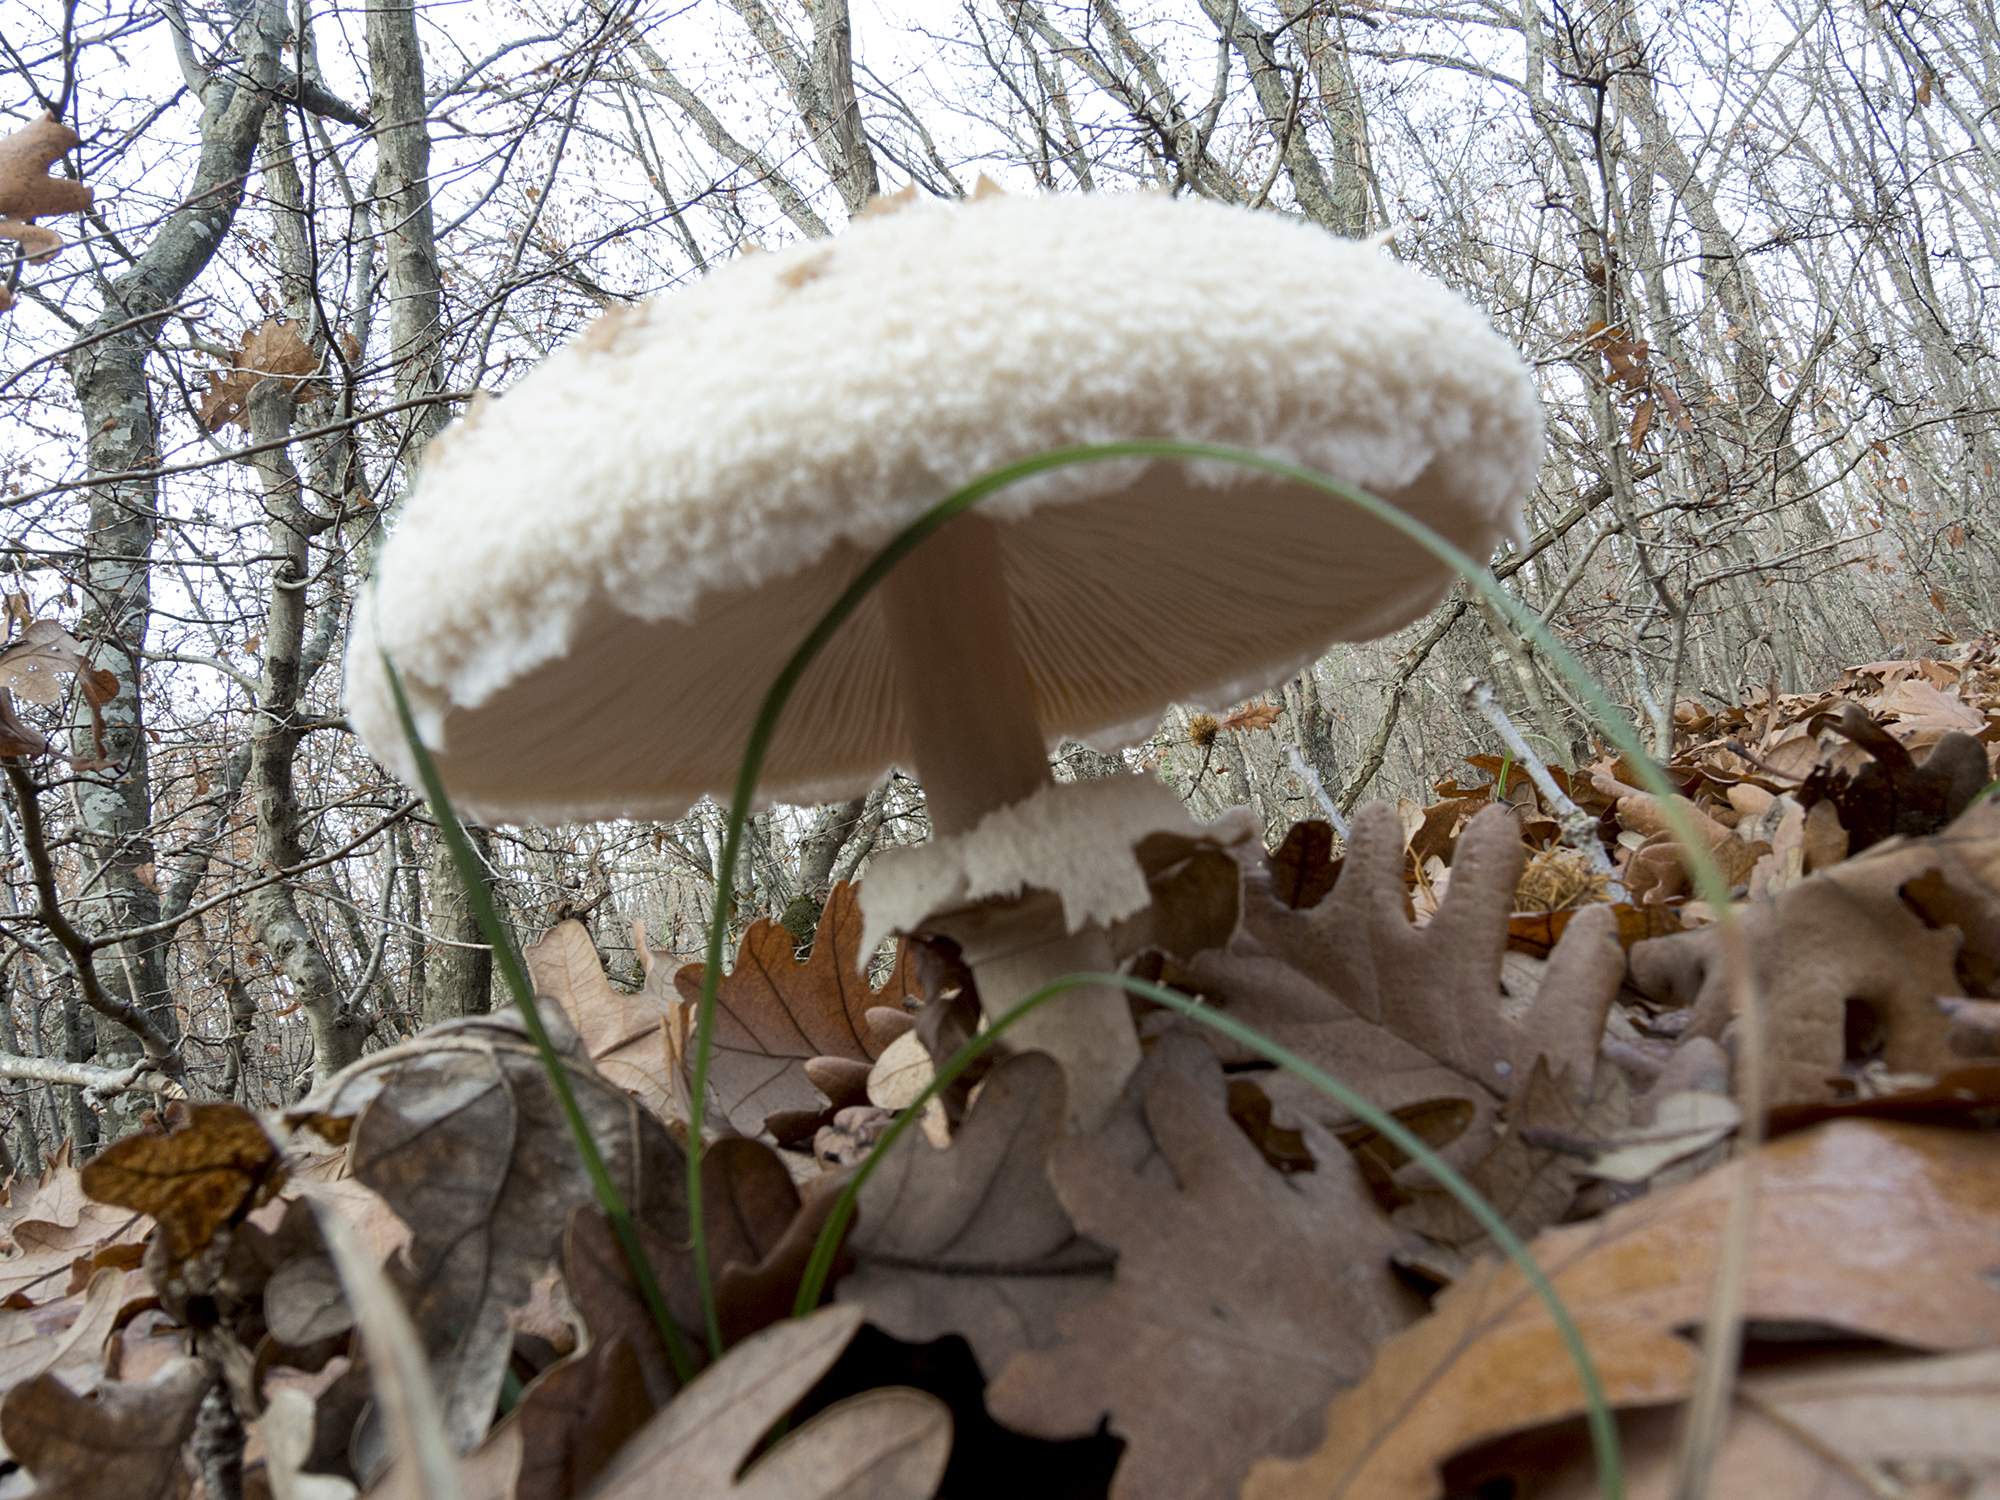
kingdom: Fungi
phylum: Basidiomycota
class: Agaricomycetes
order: Agaricales
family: Agaricaceae
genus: Macrolepiota
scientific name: Macrolepiota procera
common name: Parasol
